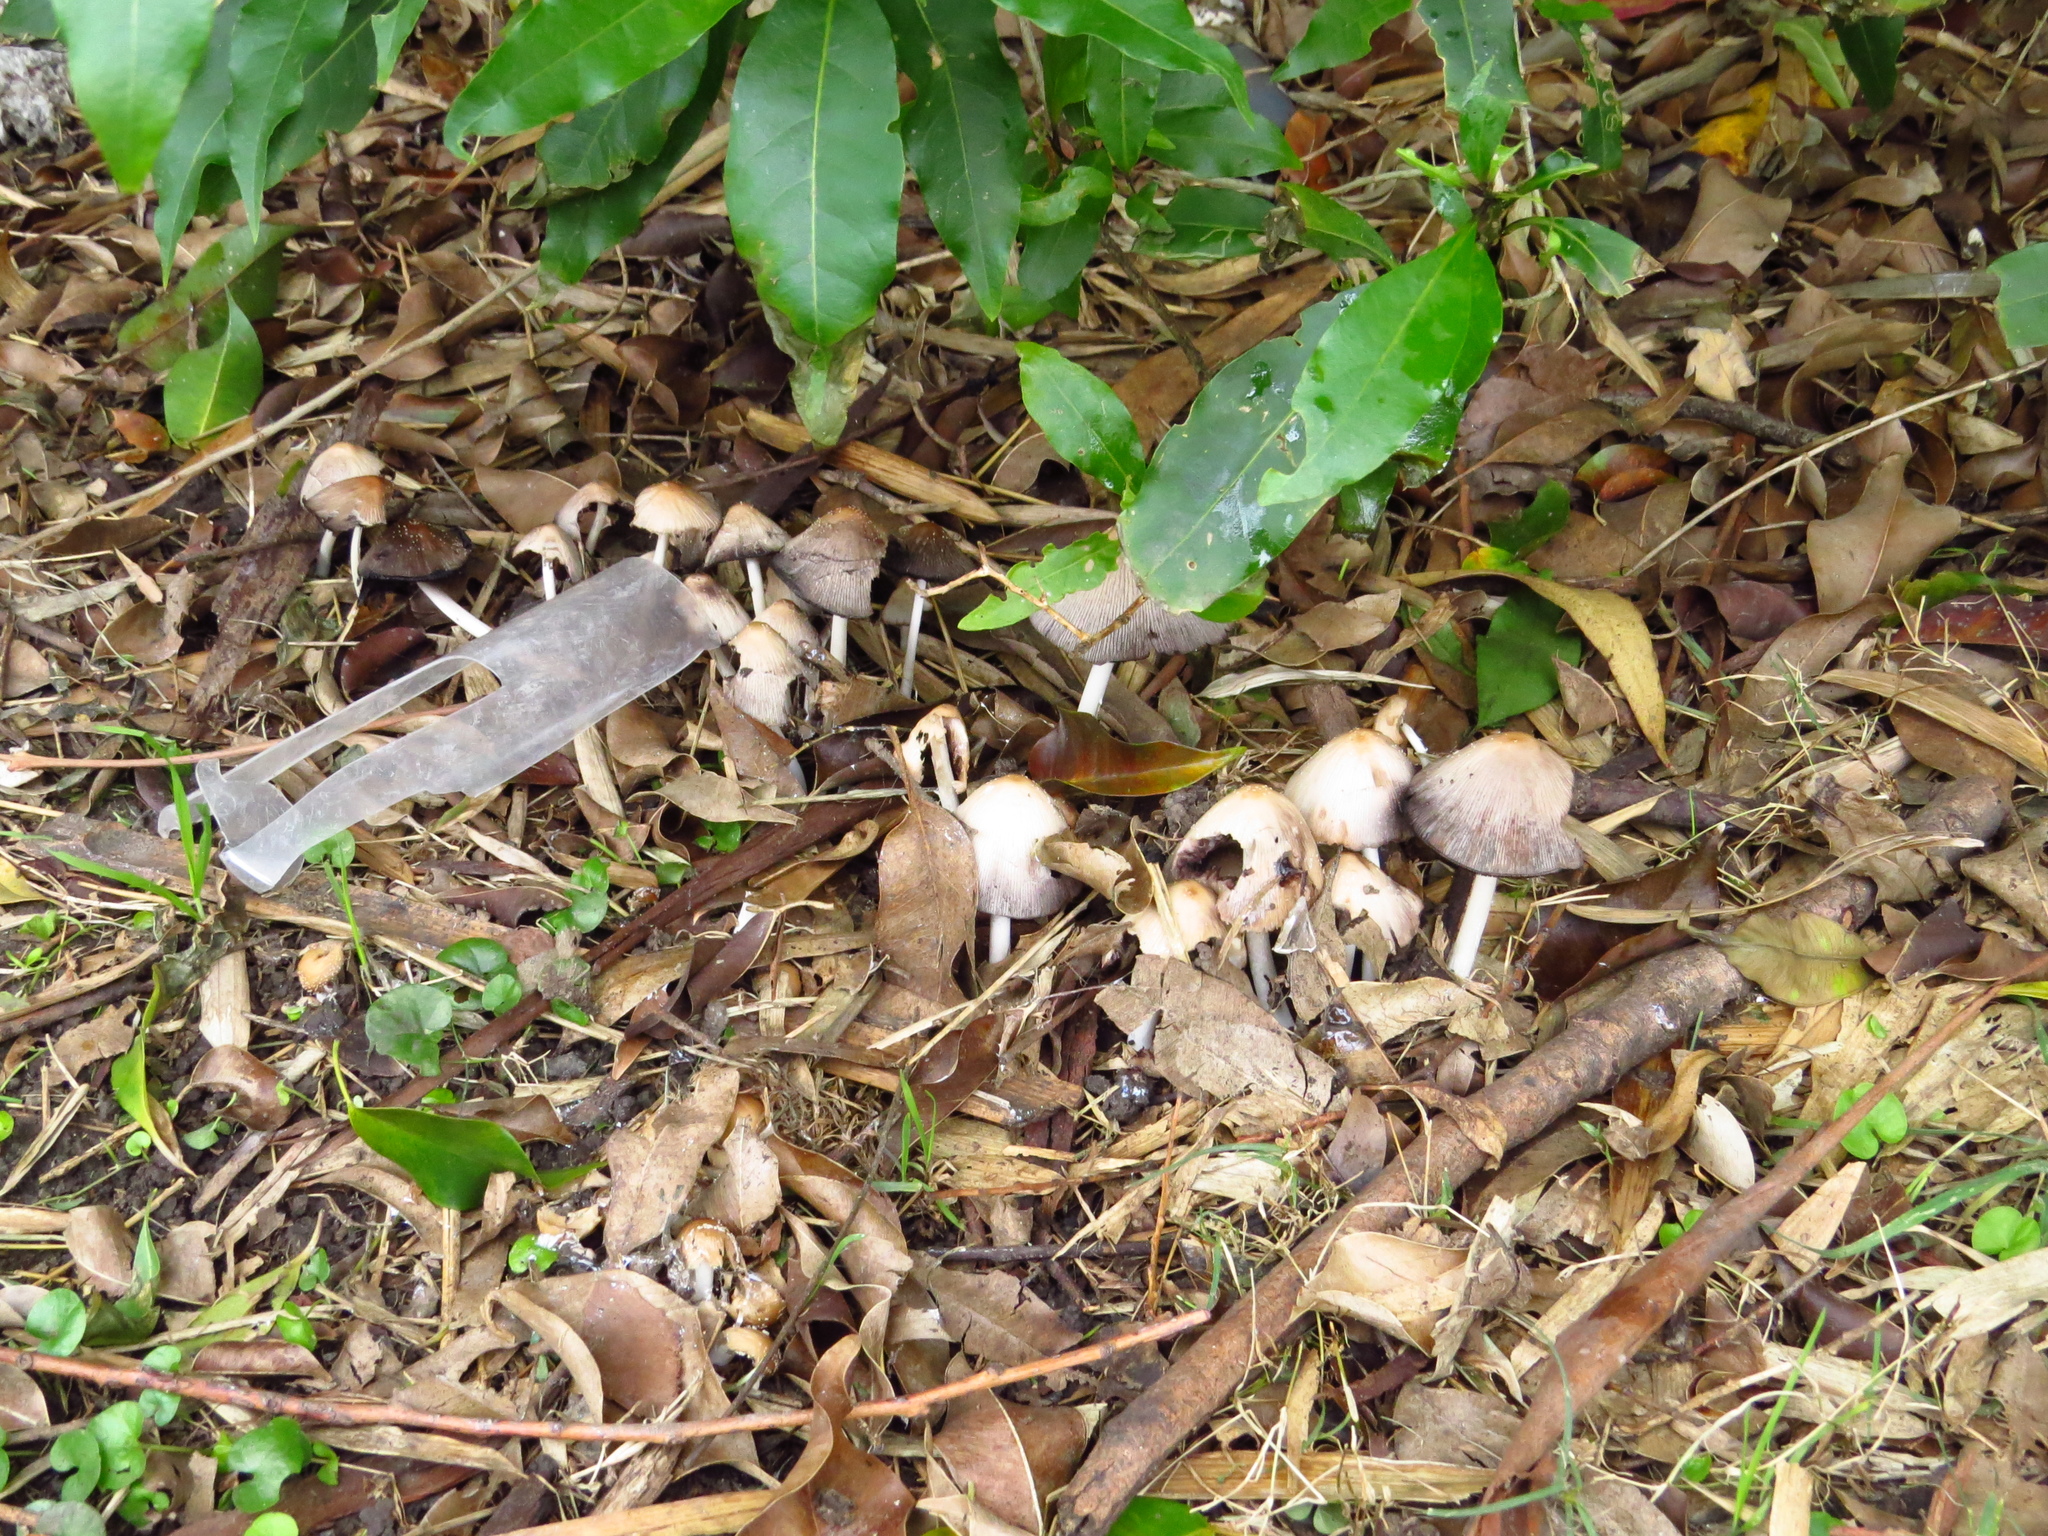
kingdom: Fungi
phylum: Basidiomycota
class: Agaricomycetes
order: Agaricales
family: Psathyrellaceae
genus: Coprinellus
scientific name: Coprinellus truncorum
